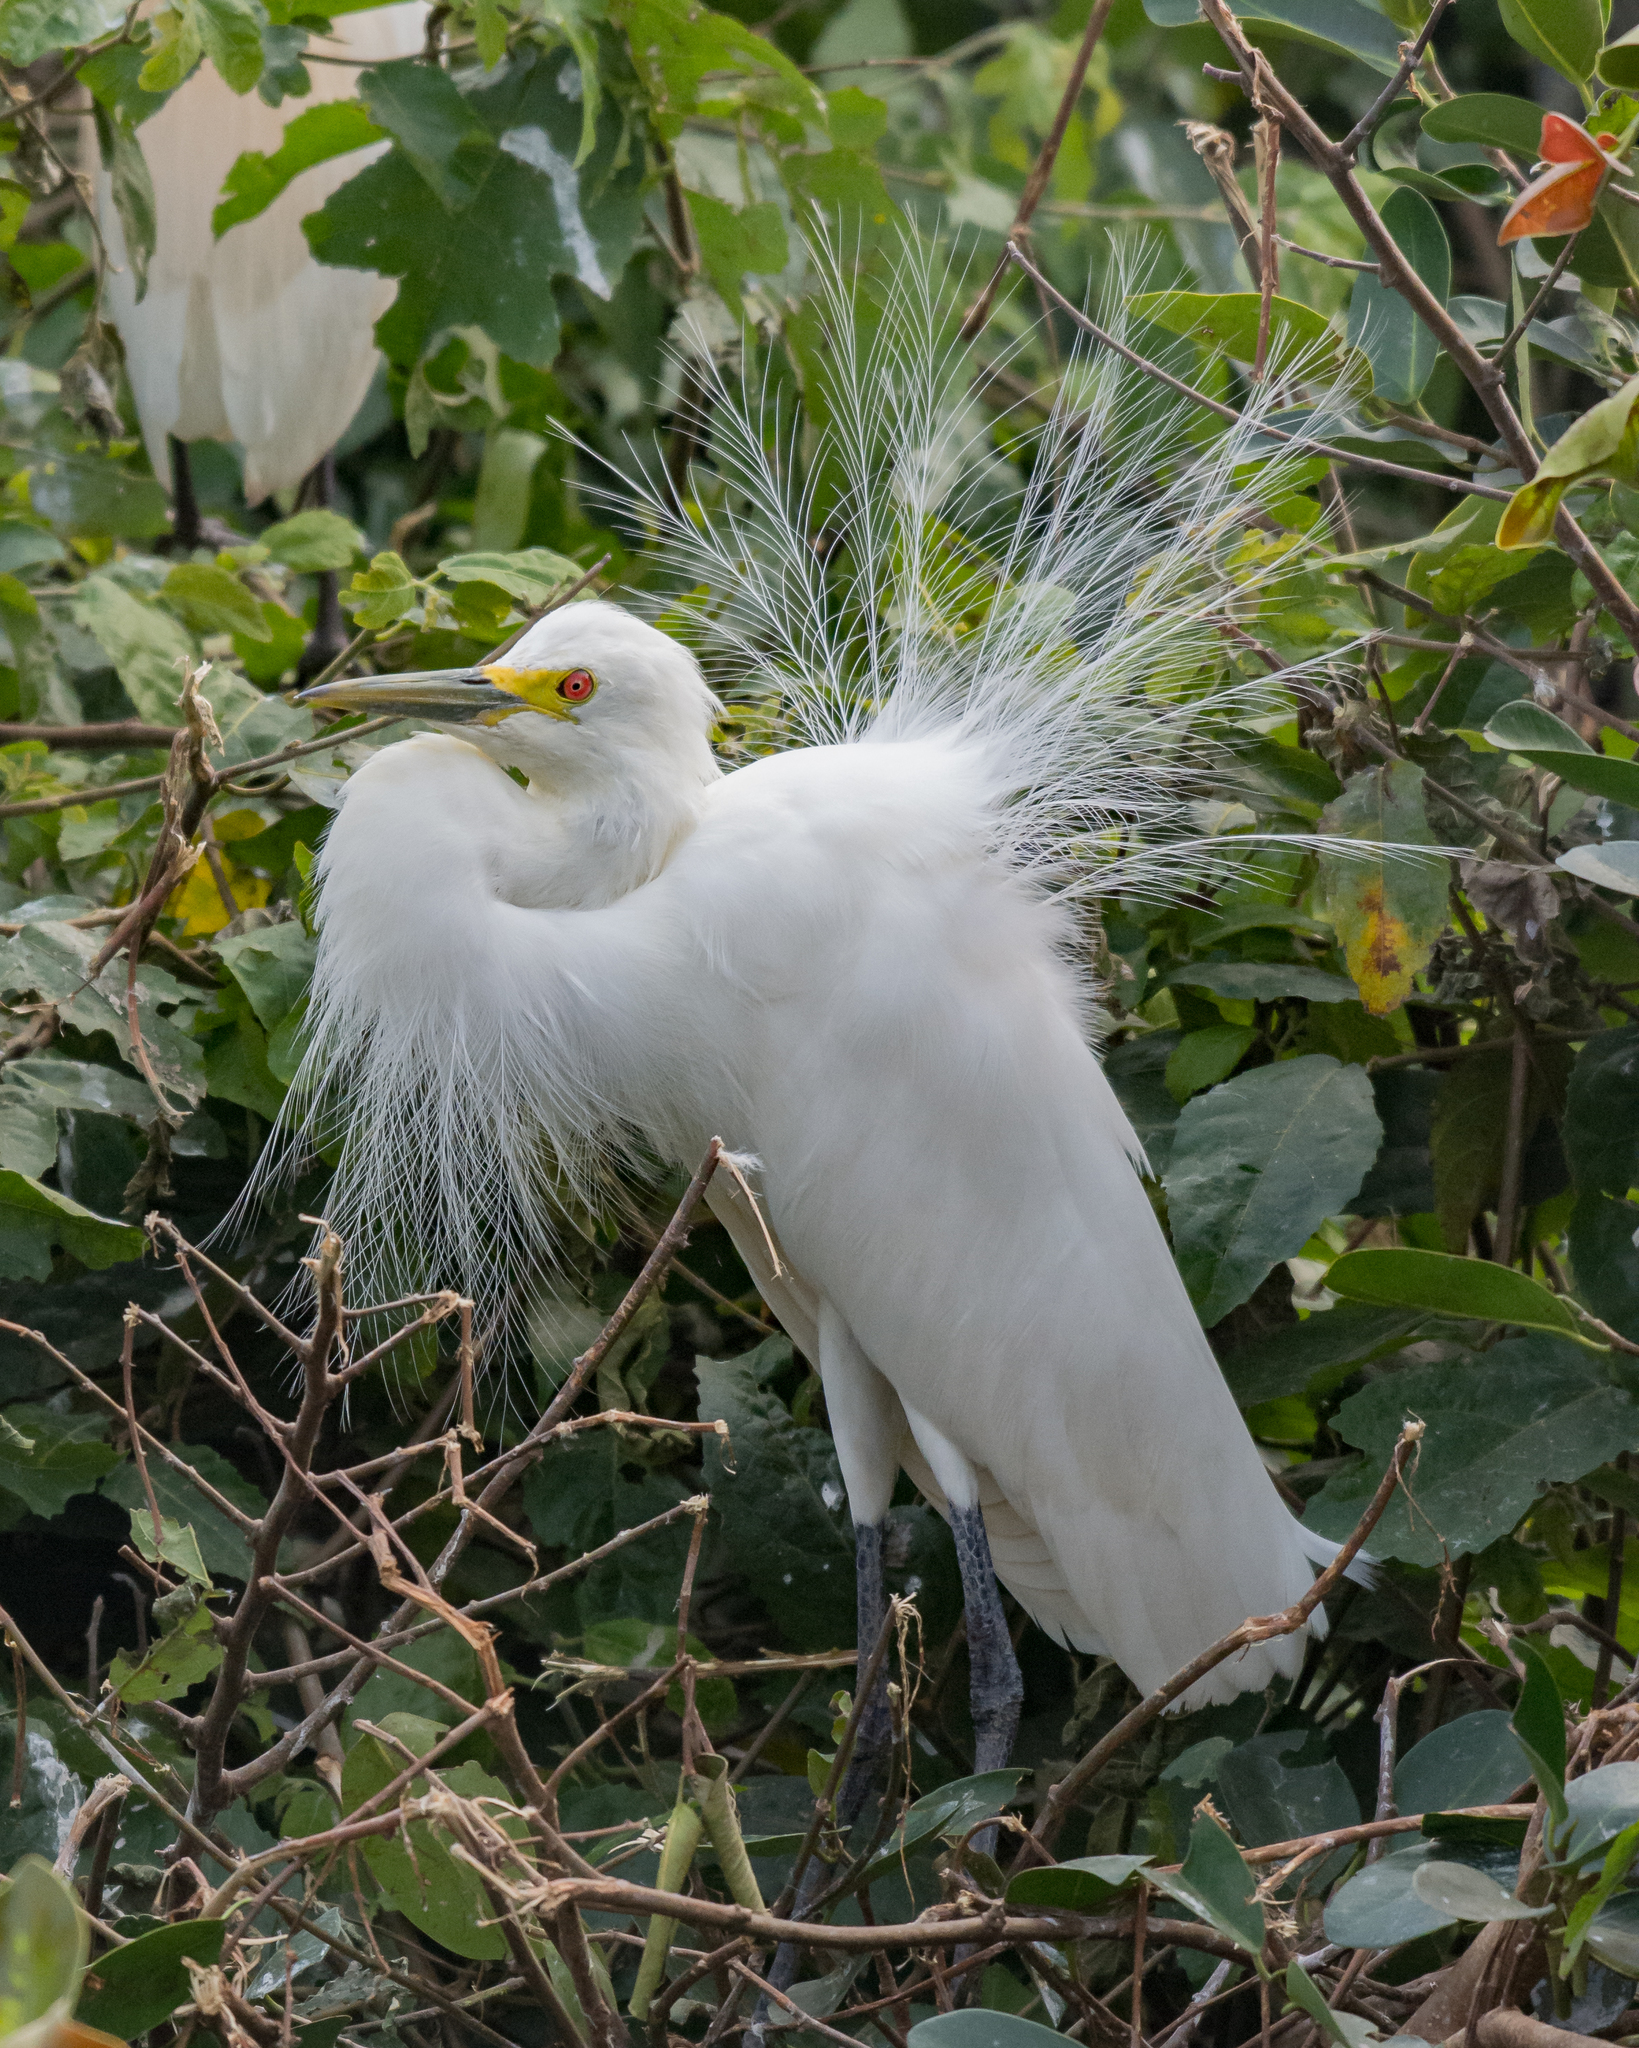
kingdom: Animalia
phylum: Chordata
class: Aves
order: Pelecaniformes
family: Ardeidae
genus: Egretta
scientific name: Egretta intermedia
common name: Intermediate egret
